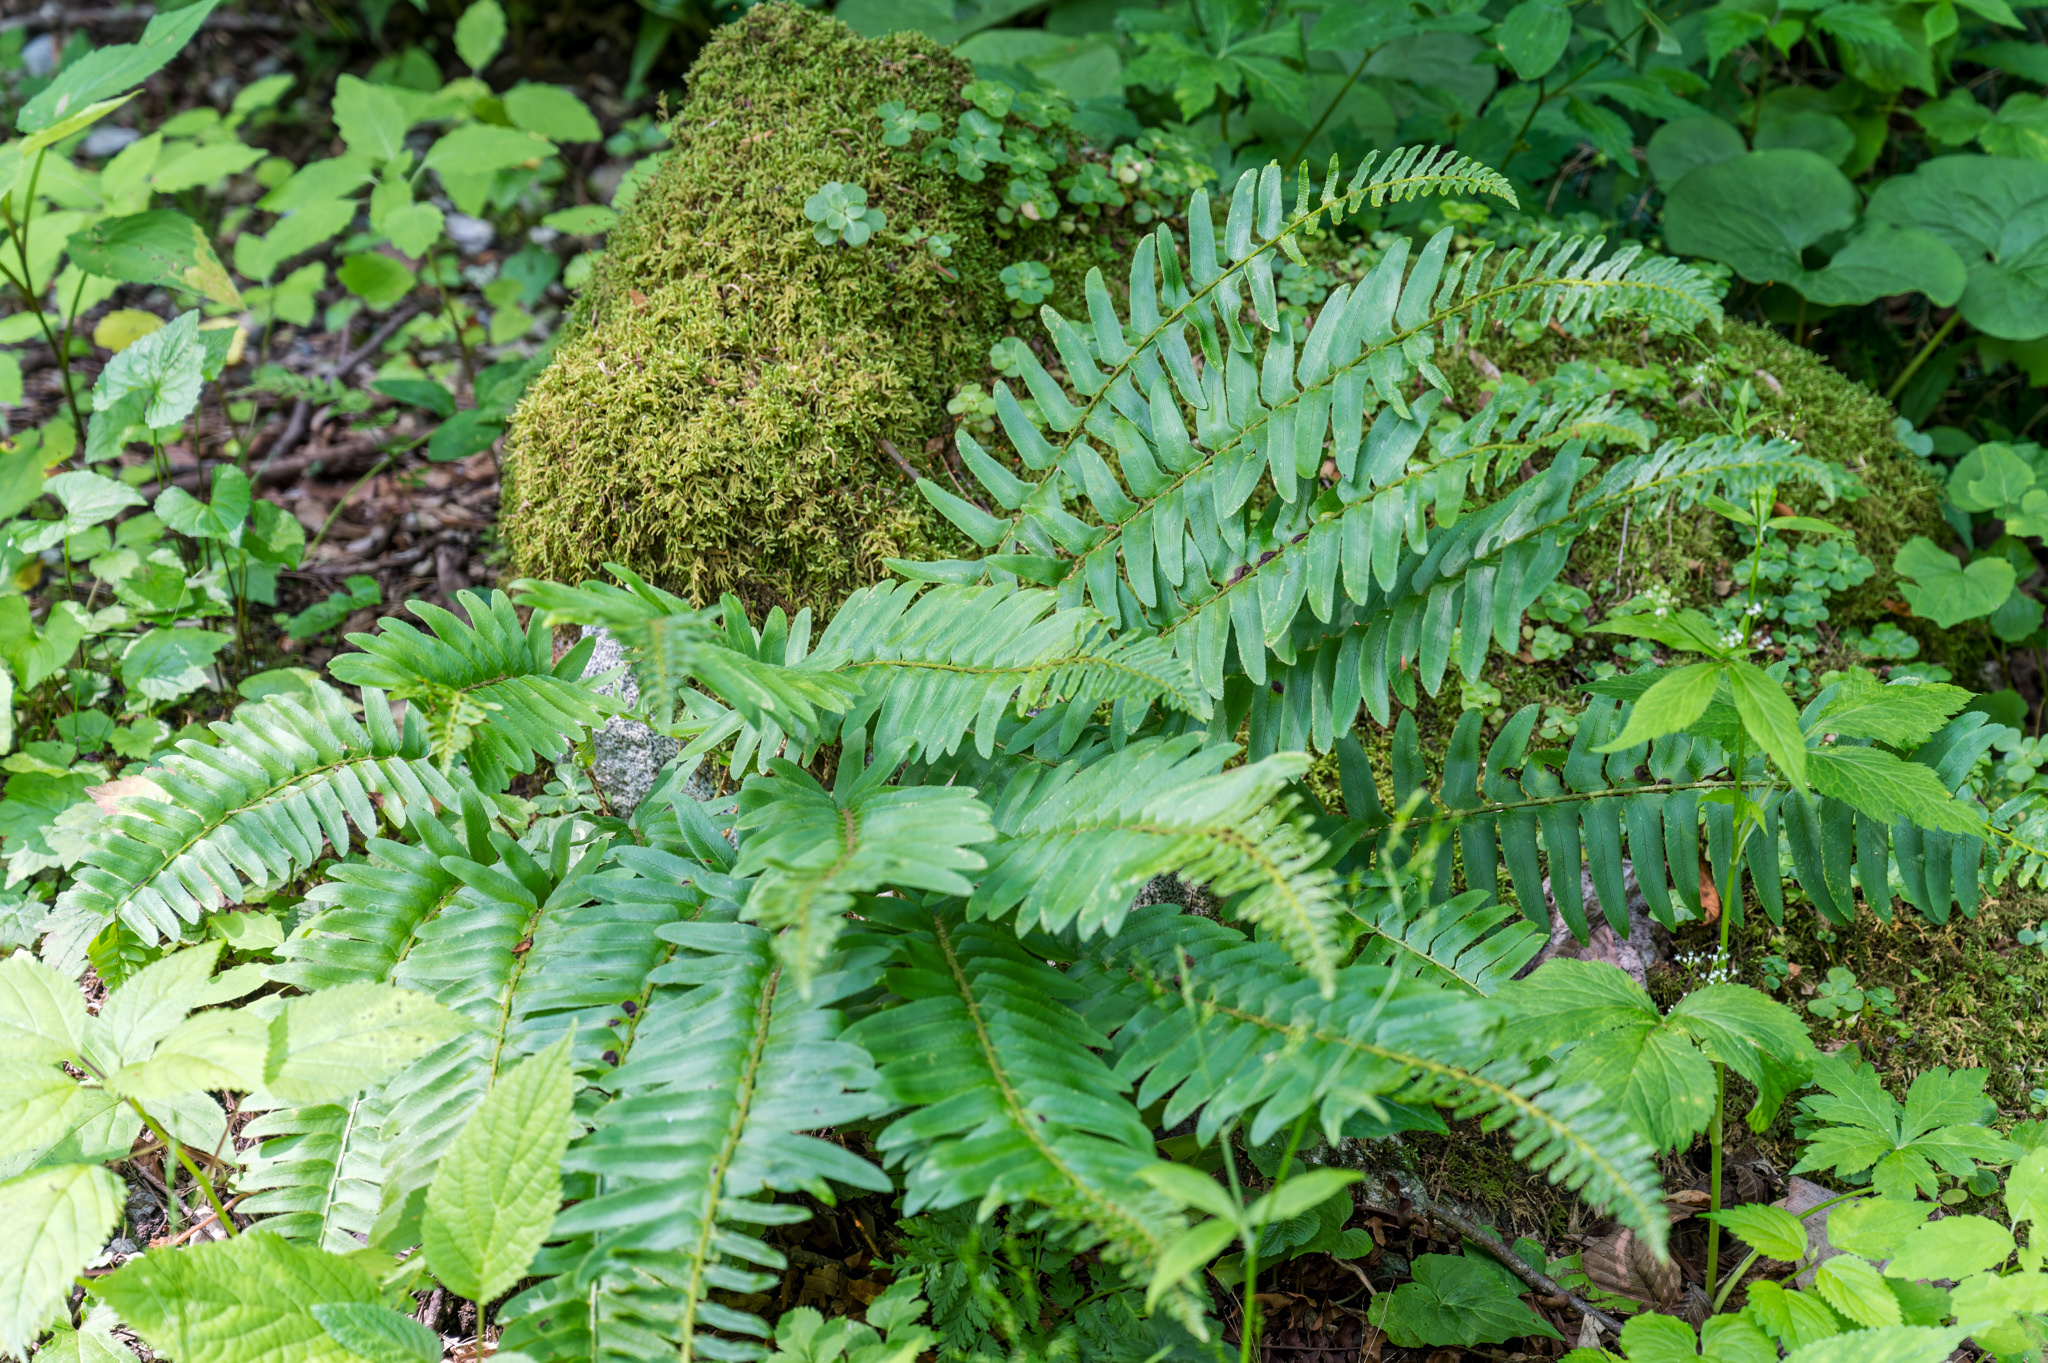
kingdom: Plantae
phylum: Tracheophyta
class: Polypodiopsida
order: Polypodiales
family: Dryopteridaceae
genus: Polystichum
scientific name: Polystichum acrostichoides
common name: Christmas fern
